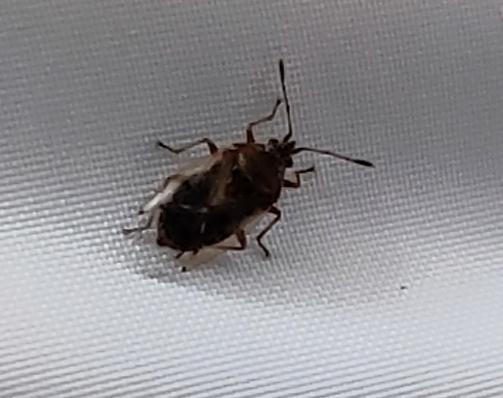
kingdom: Animalia
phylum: Arthropoda
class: Insecta
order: Hemiptera
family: Lygaeidae
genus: Kleidocerys
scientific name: Kleidocerys resedae
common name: Birch catkin bug
